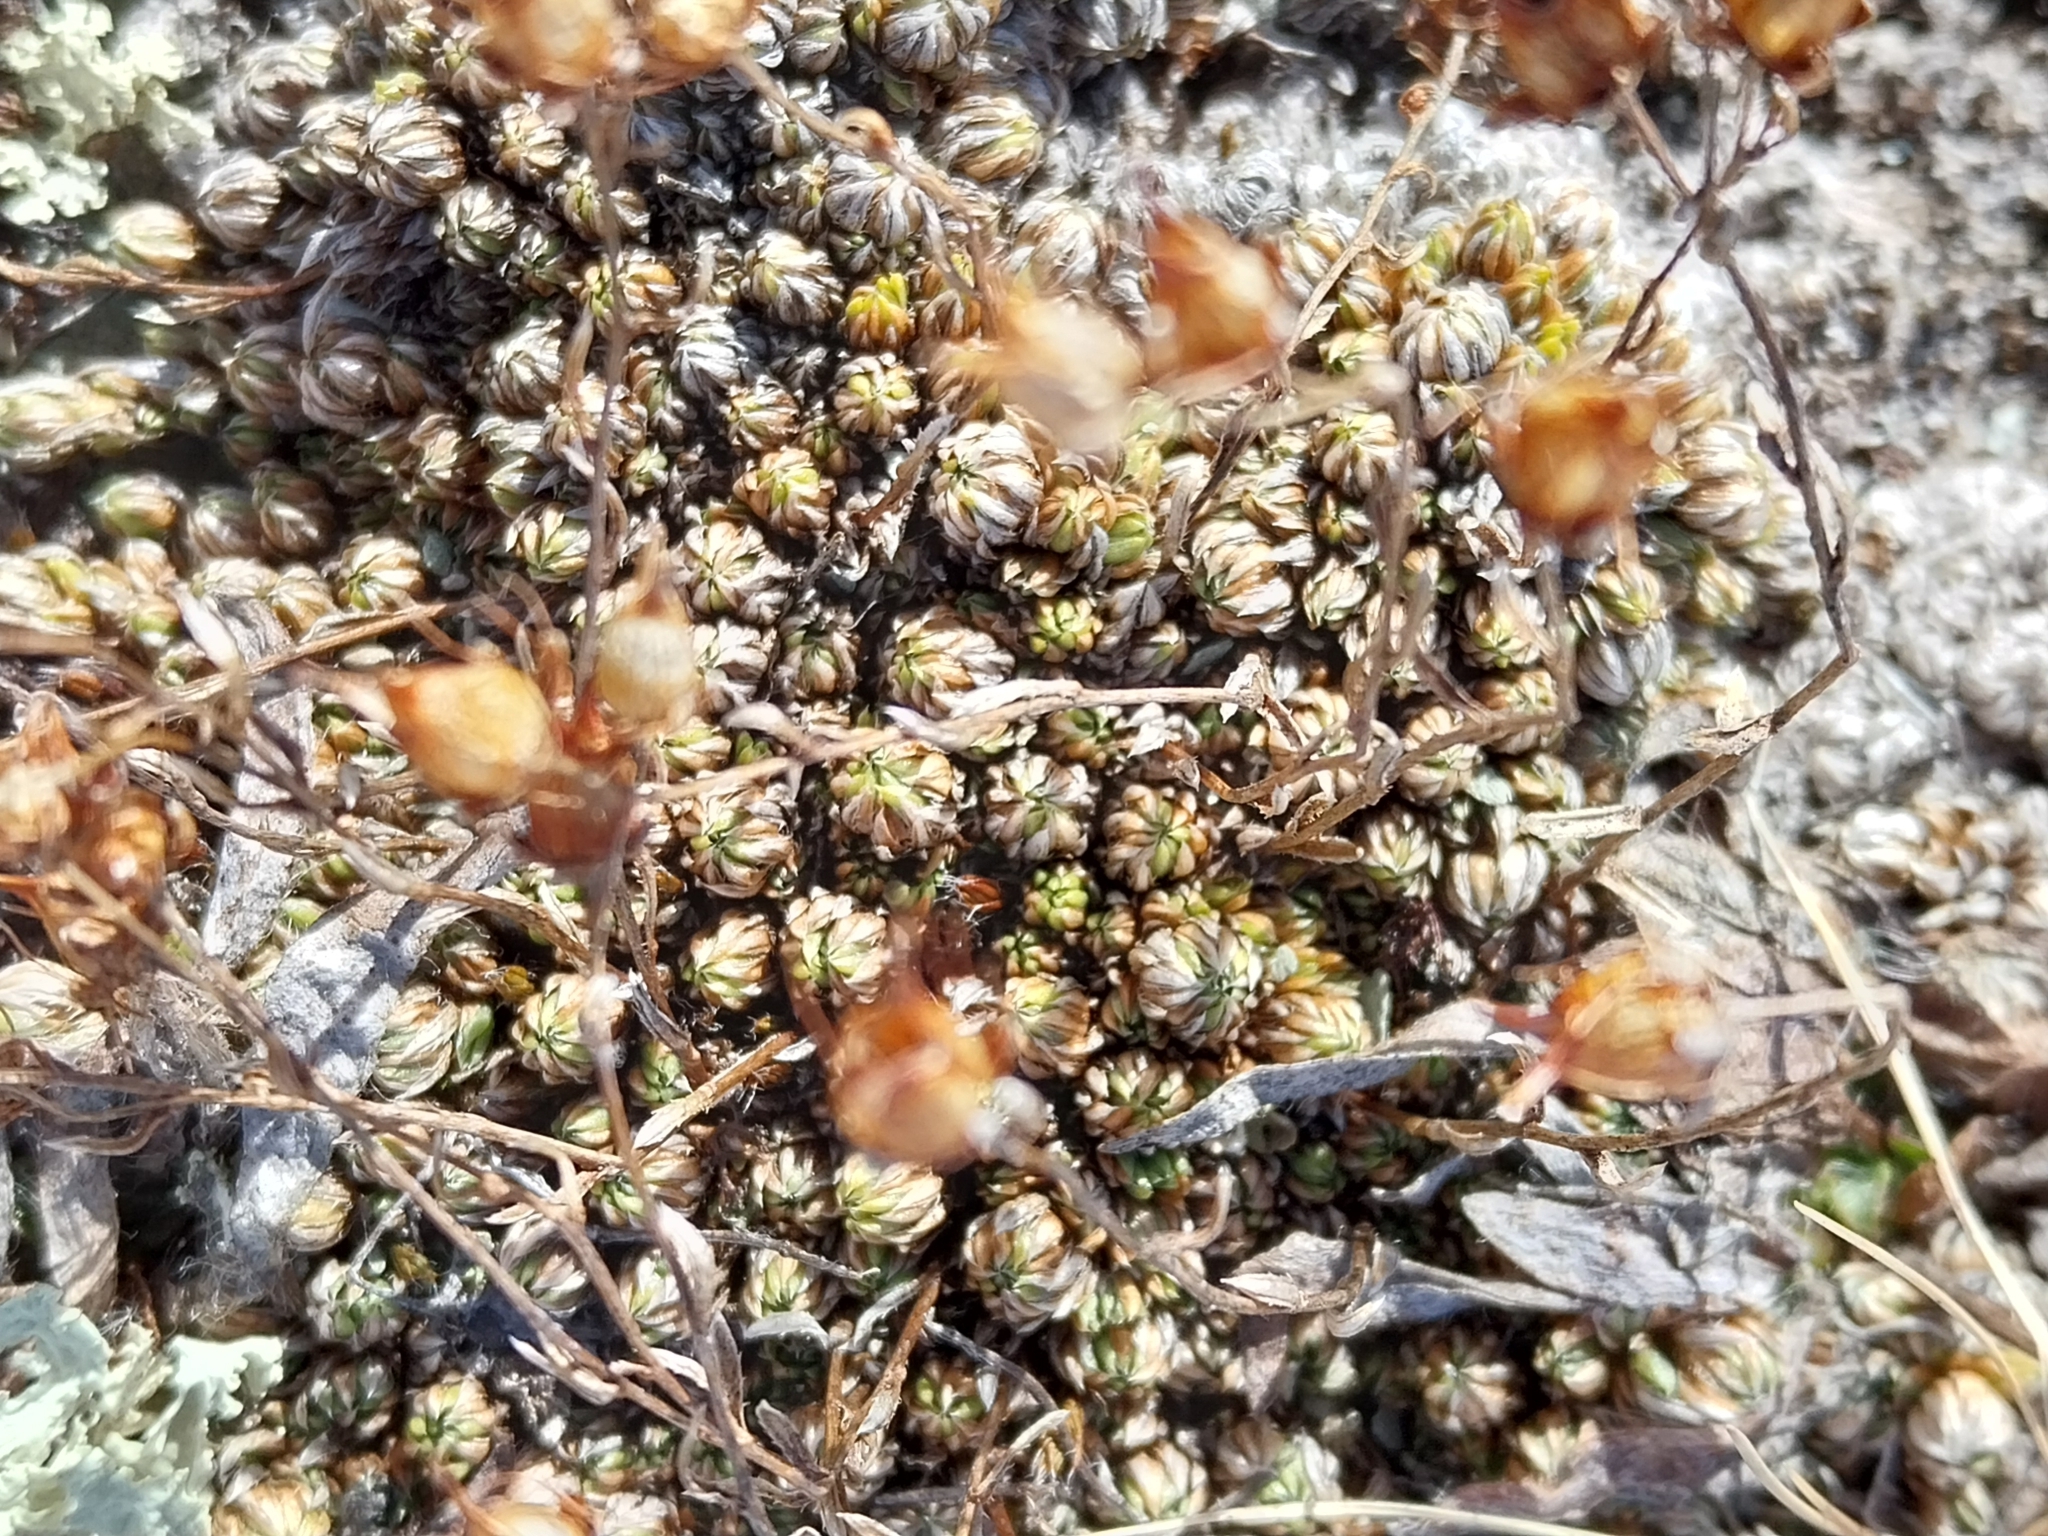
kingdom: Plantae
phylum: Tracheophyta
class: Magnoliopsida
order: Saxifragales
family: Saxifragaceae
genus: Saxifraga
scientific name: Saxifraga bryoides
